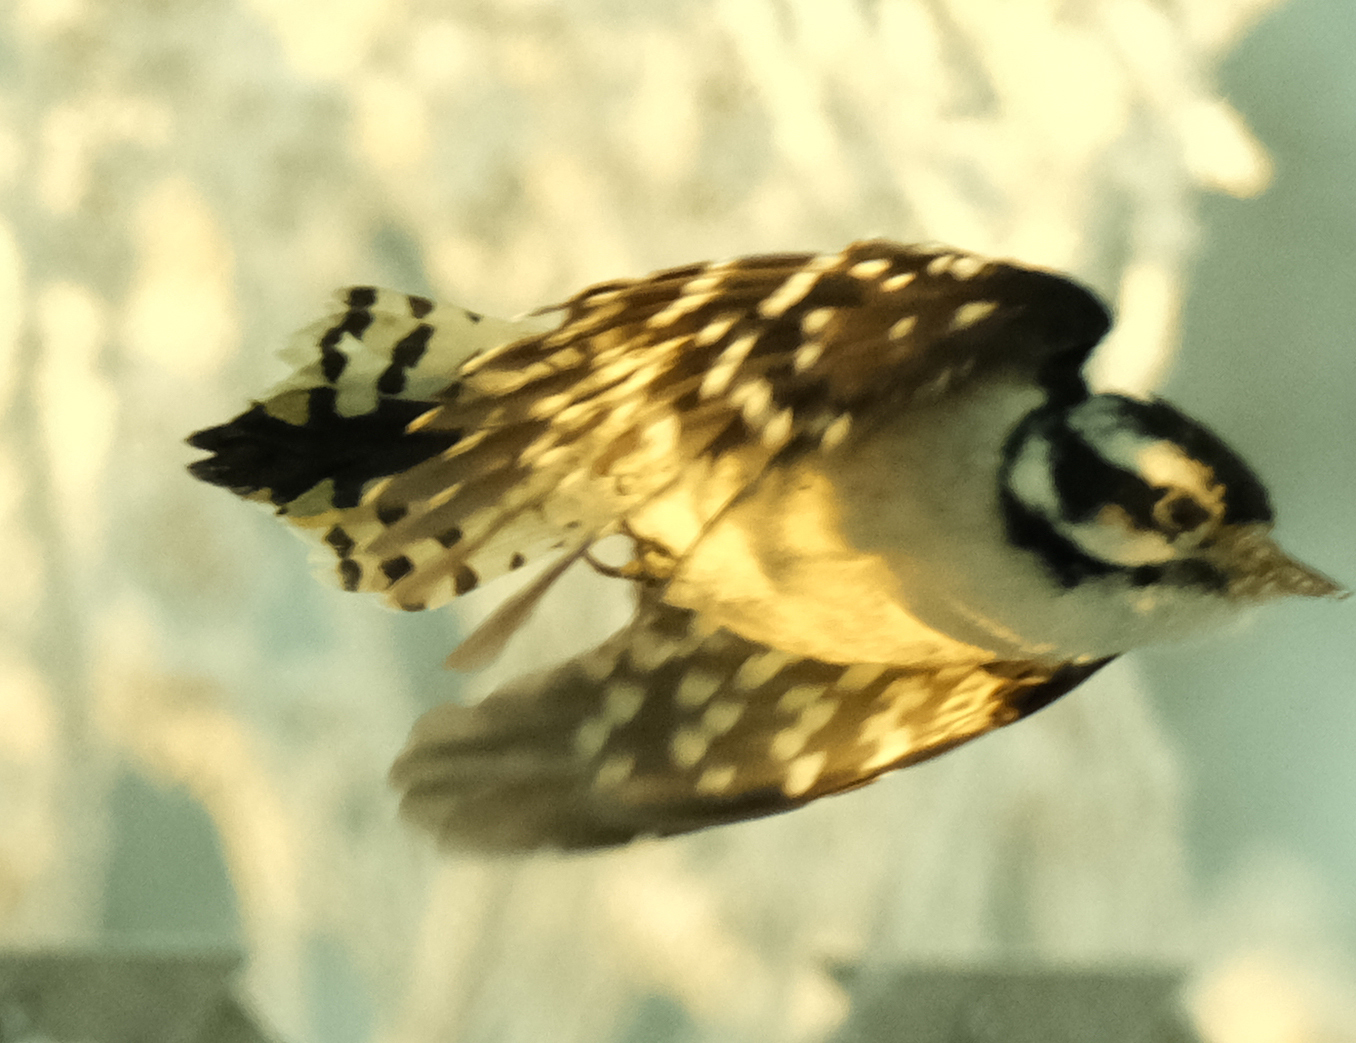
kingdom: Animalia
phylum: Chordata
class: Aves
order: Piciformes
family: Picidae
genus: Dryobates
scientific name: Dryobates pubescens
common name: Downy woodpecker
